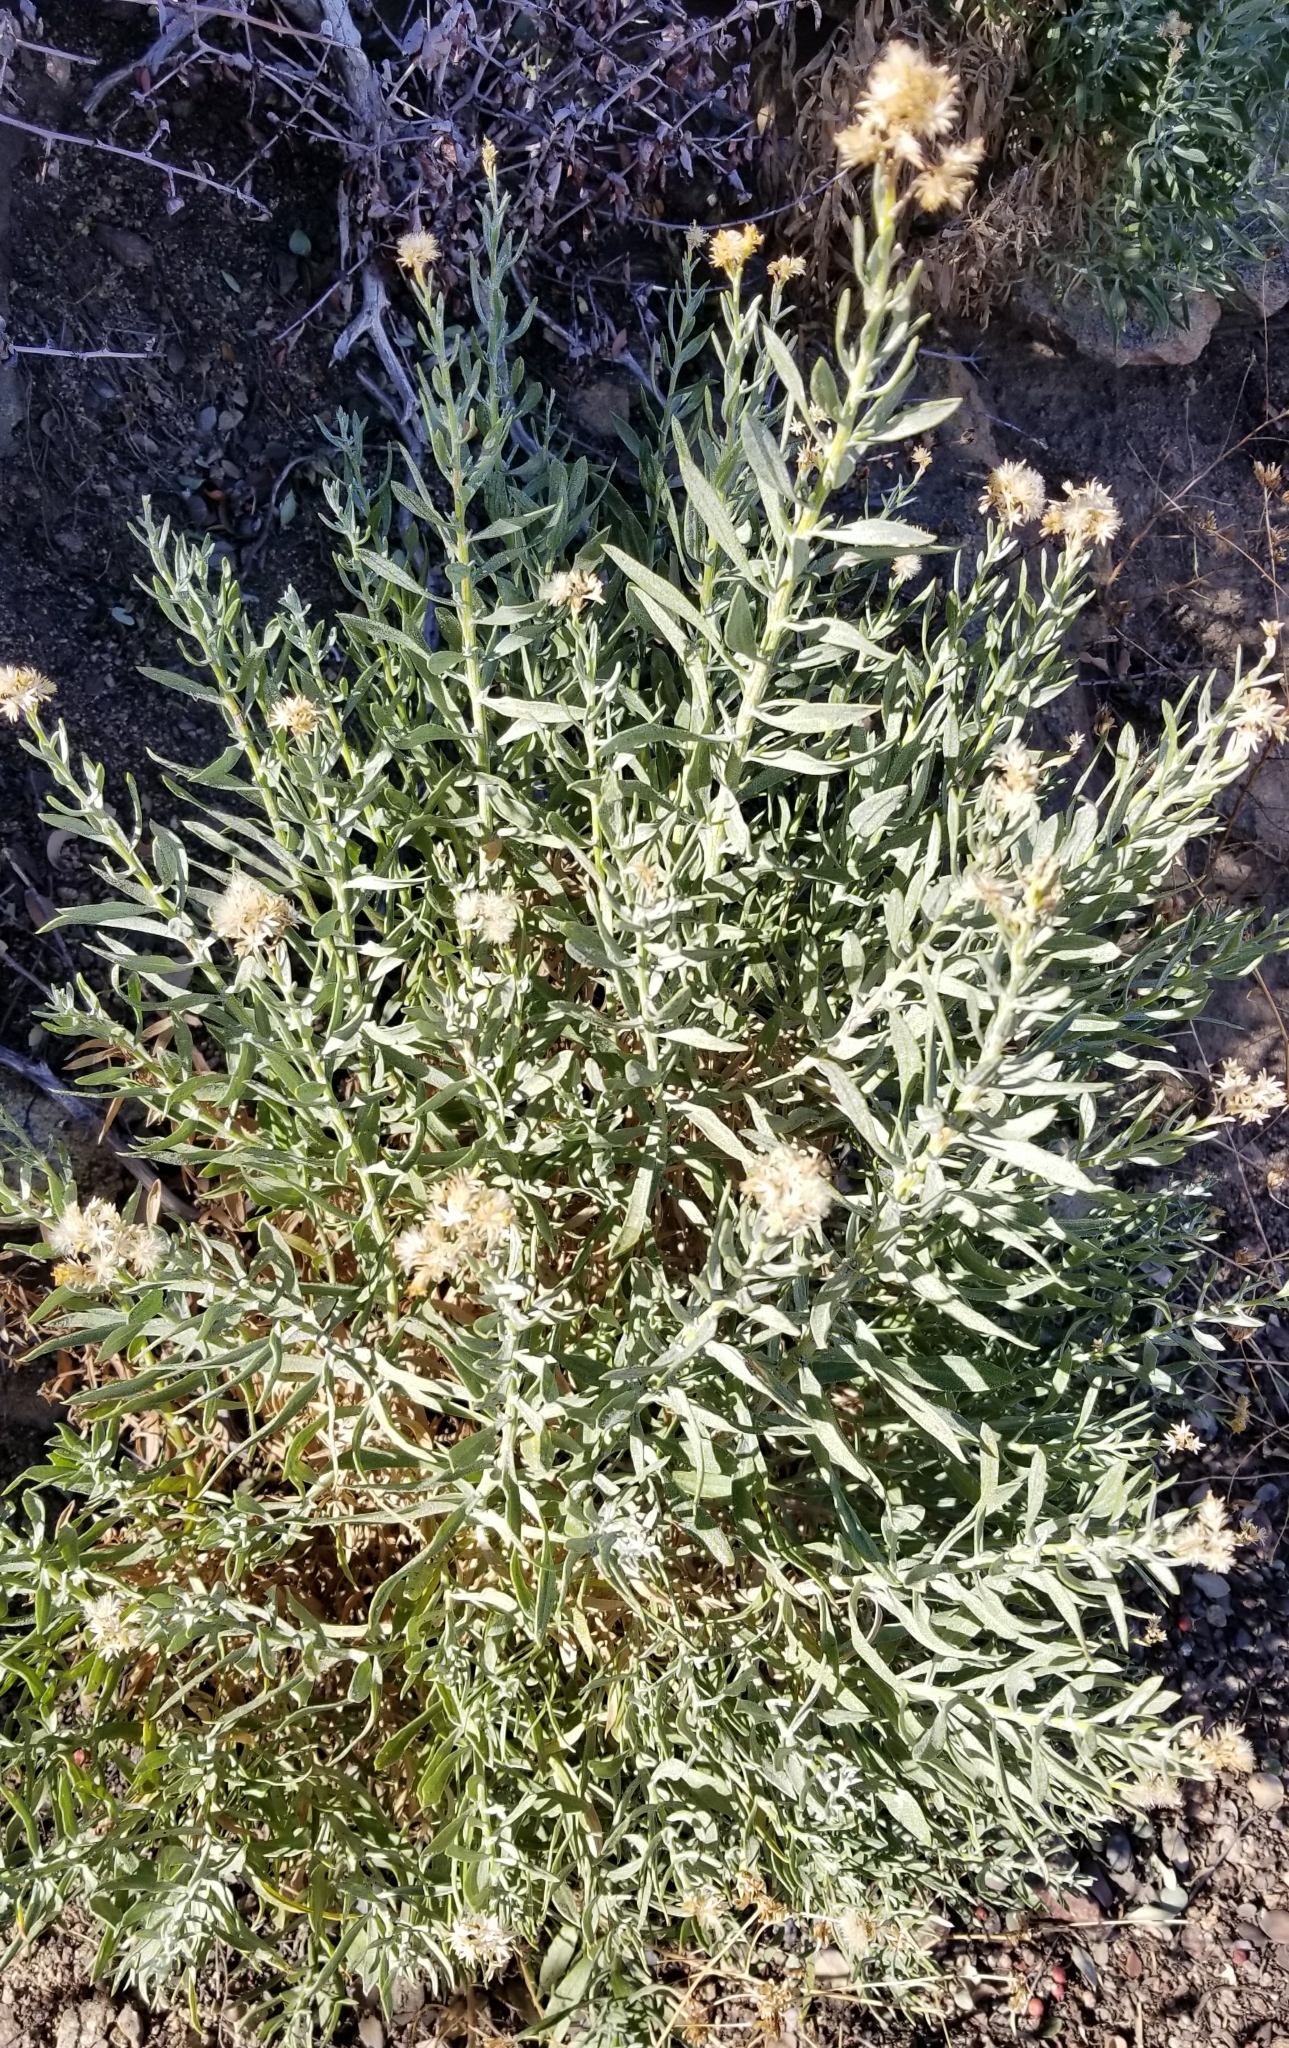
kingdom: Plantae
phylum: Tracheophyta
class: Magnoliopsida
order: Asterales
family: Asteraceae
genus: Ericameria
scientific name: Ericameria parishii
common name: Parish's goldenbush
